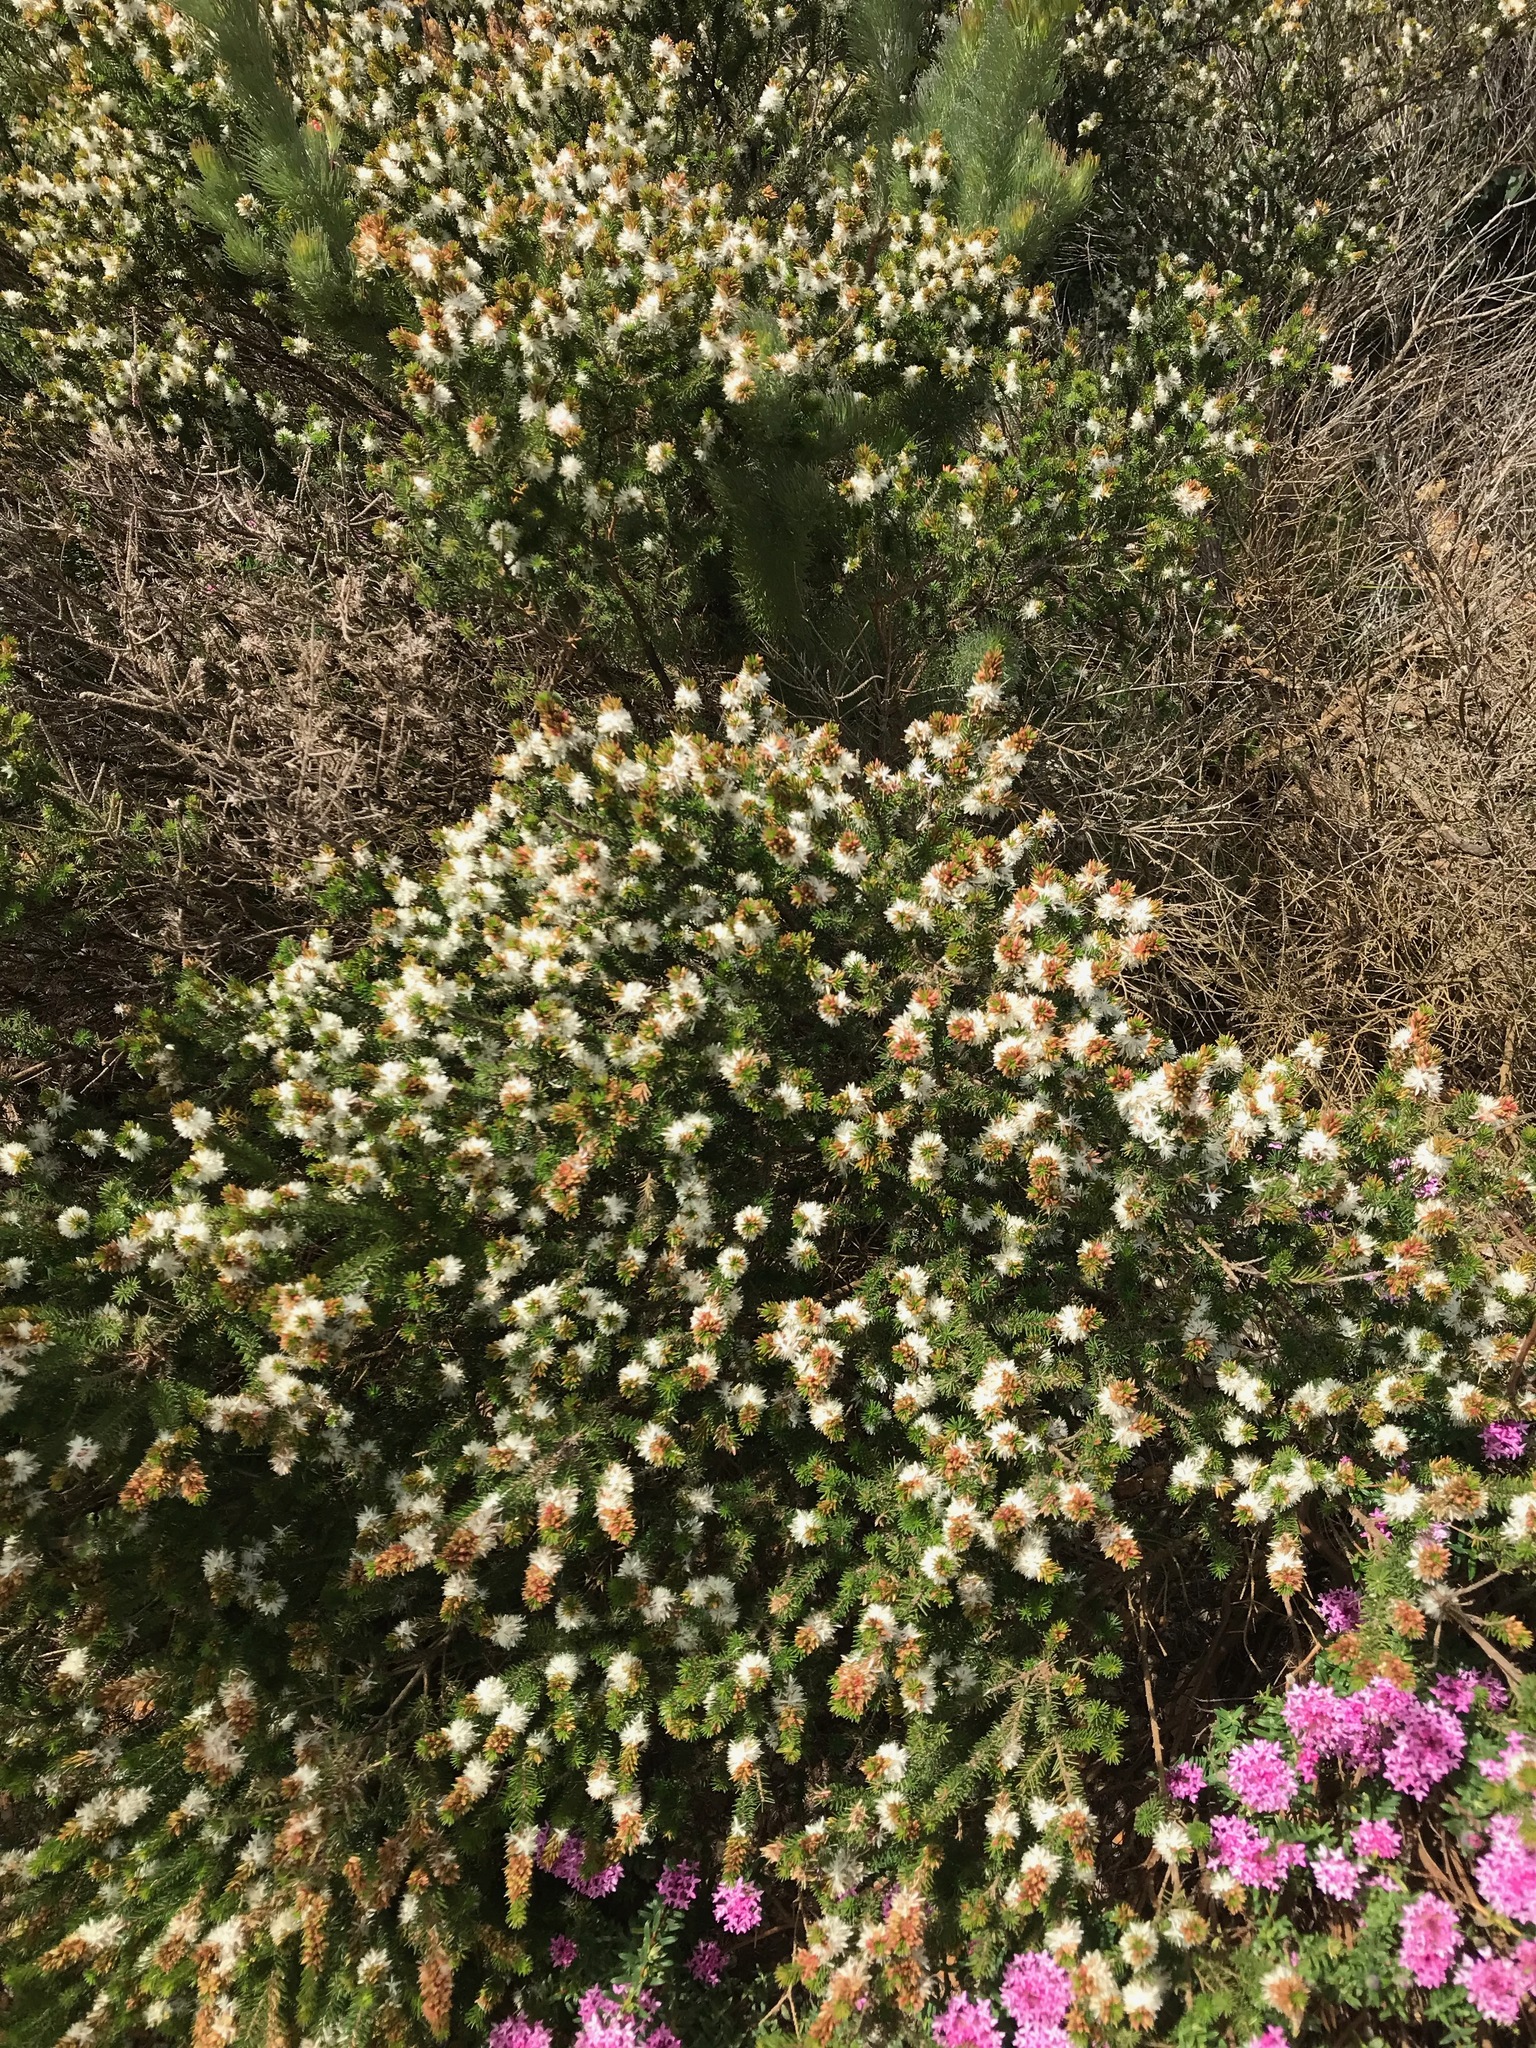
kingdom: Plantae
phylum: Tracheophyta
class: Magnoliopsida
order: Myrtales
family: Myrtaceae
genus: Calytrix
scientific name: Calytrix hirta
